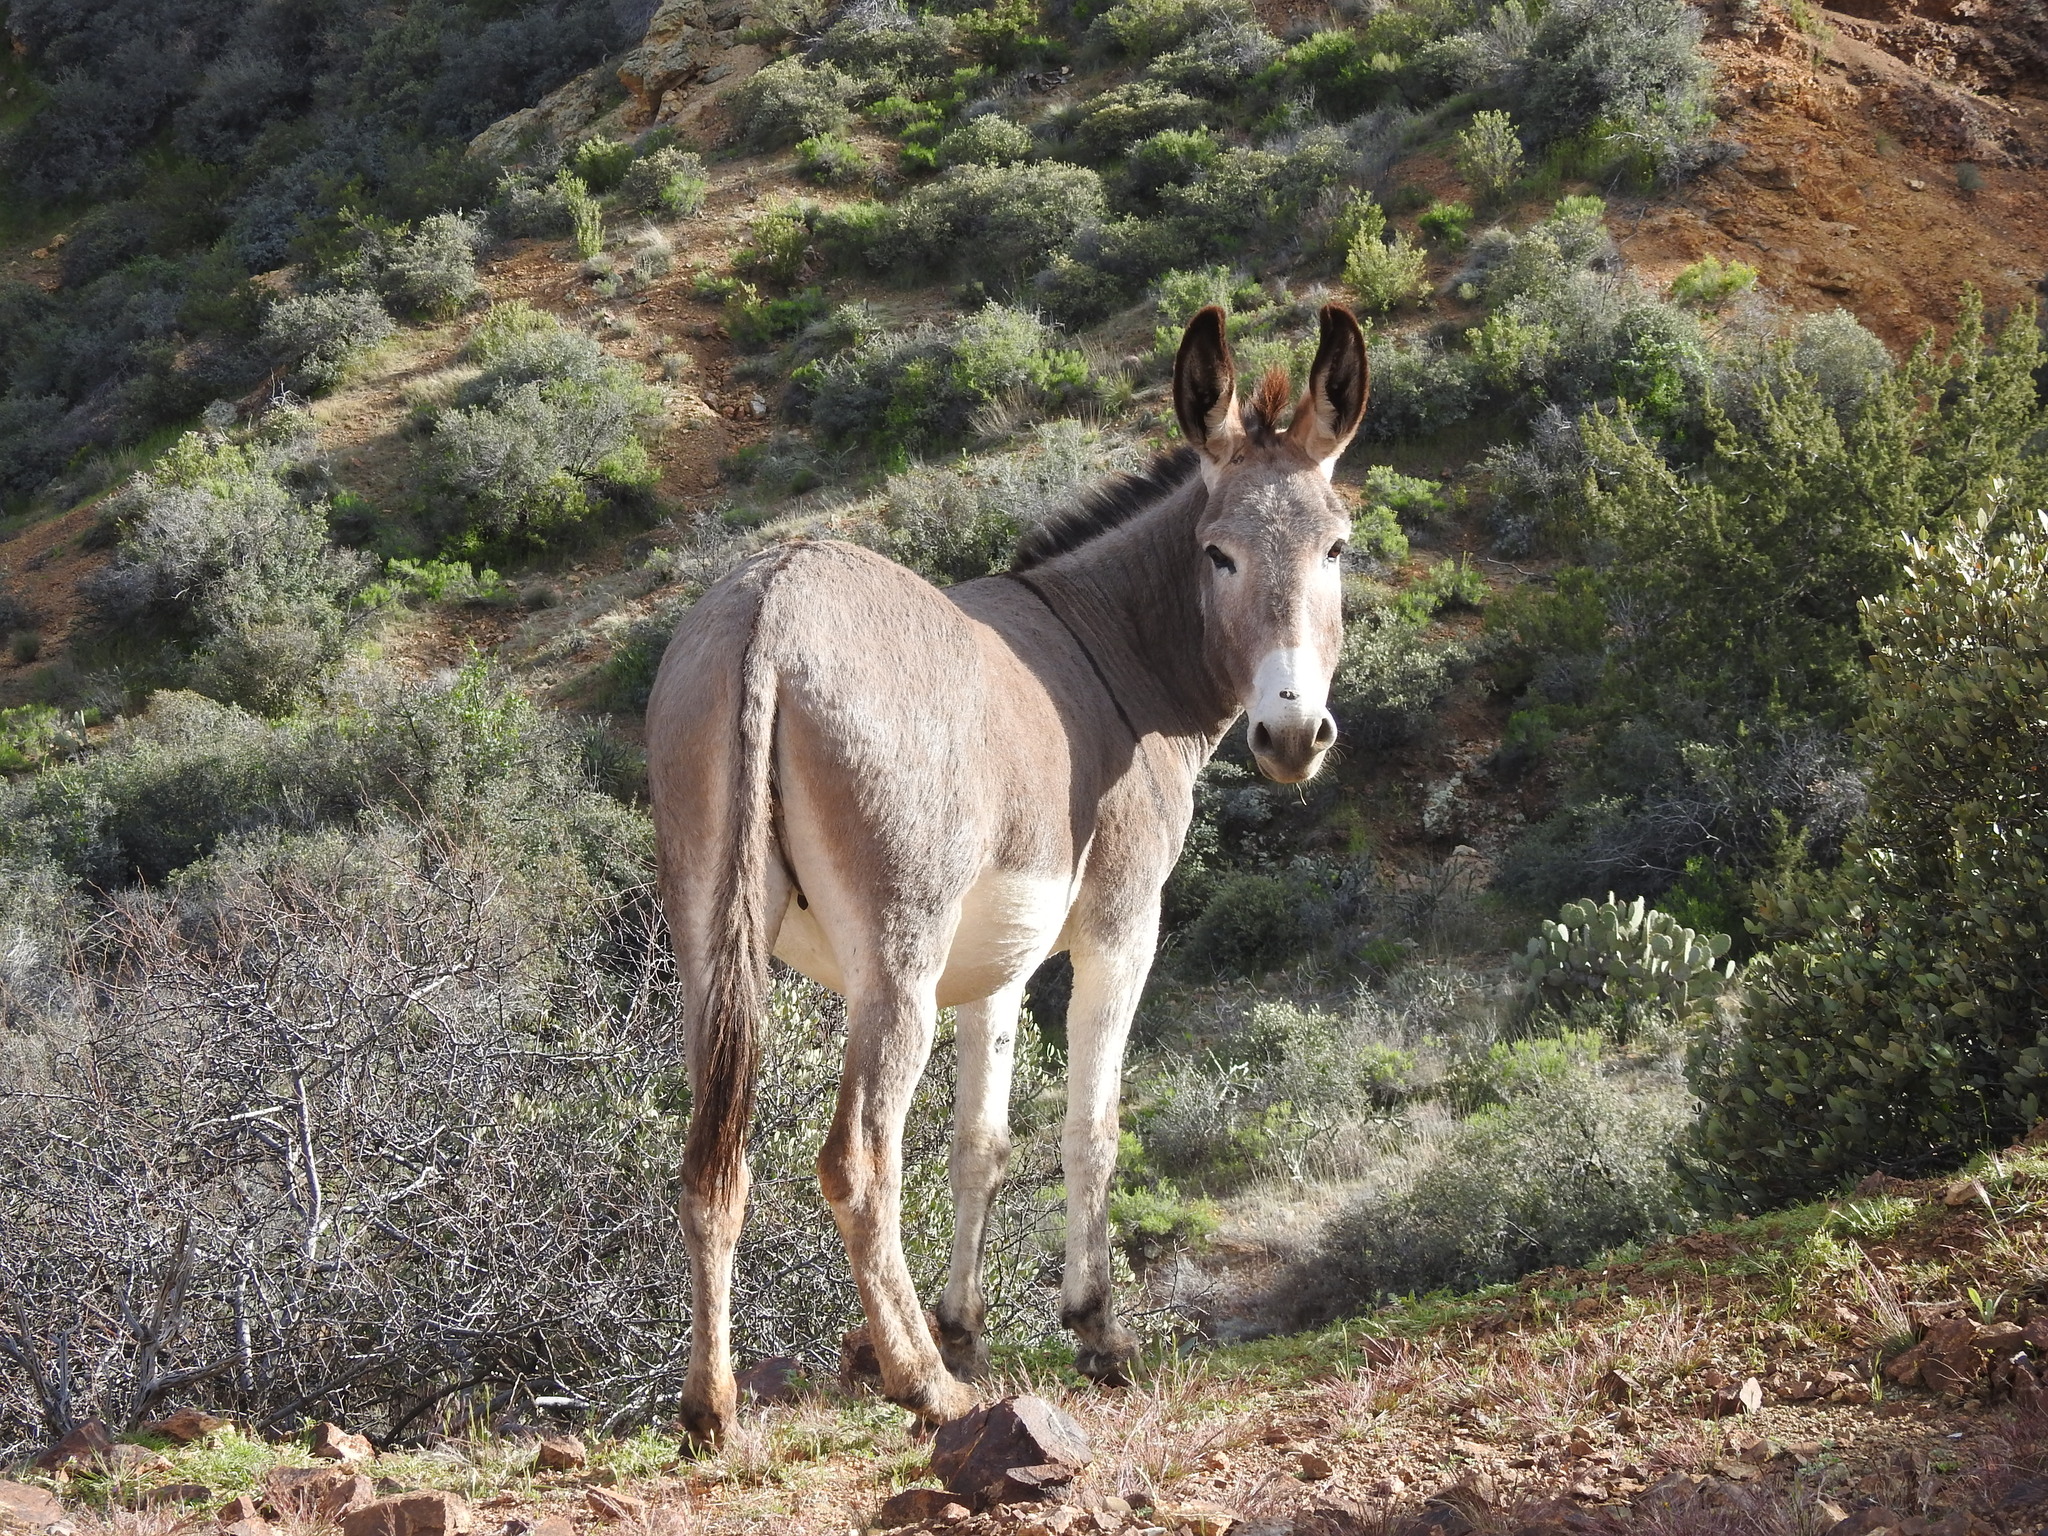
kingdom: Animalia
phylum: Chordata
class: Mammalia
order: Perissodactyla
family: Equidae
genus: Equus
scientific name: Equus asinus
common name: Ass
